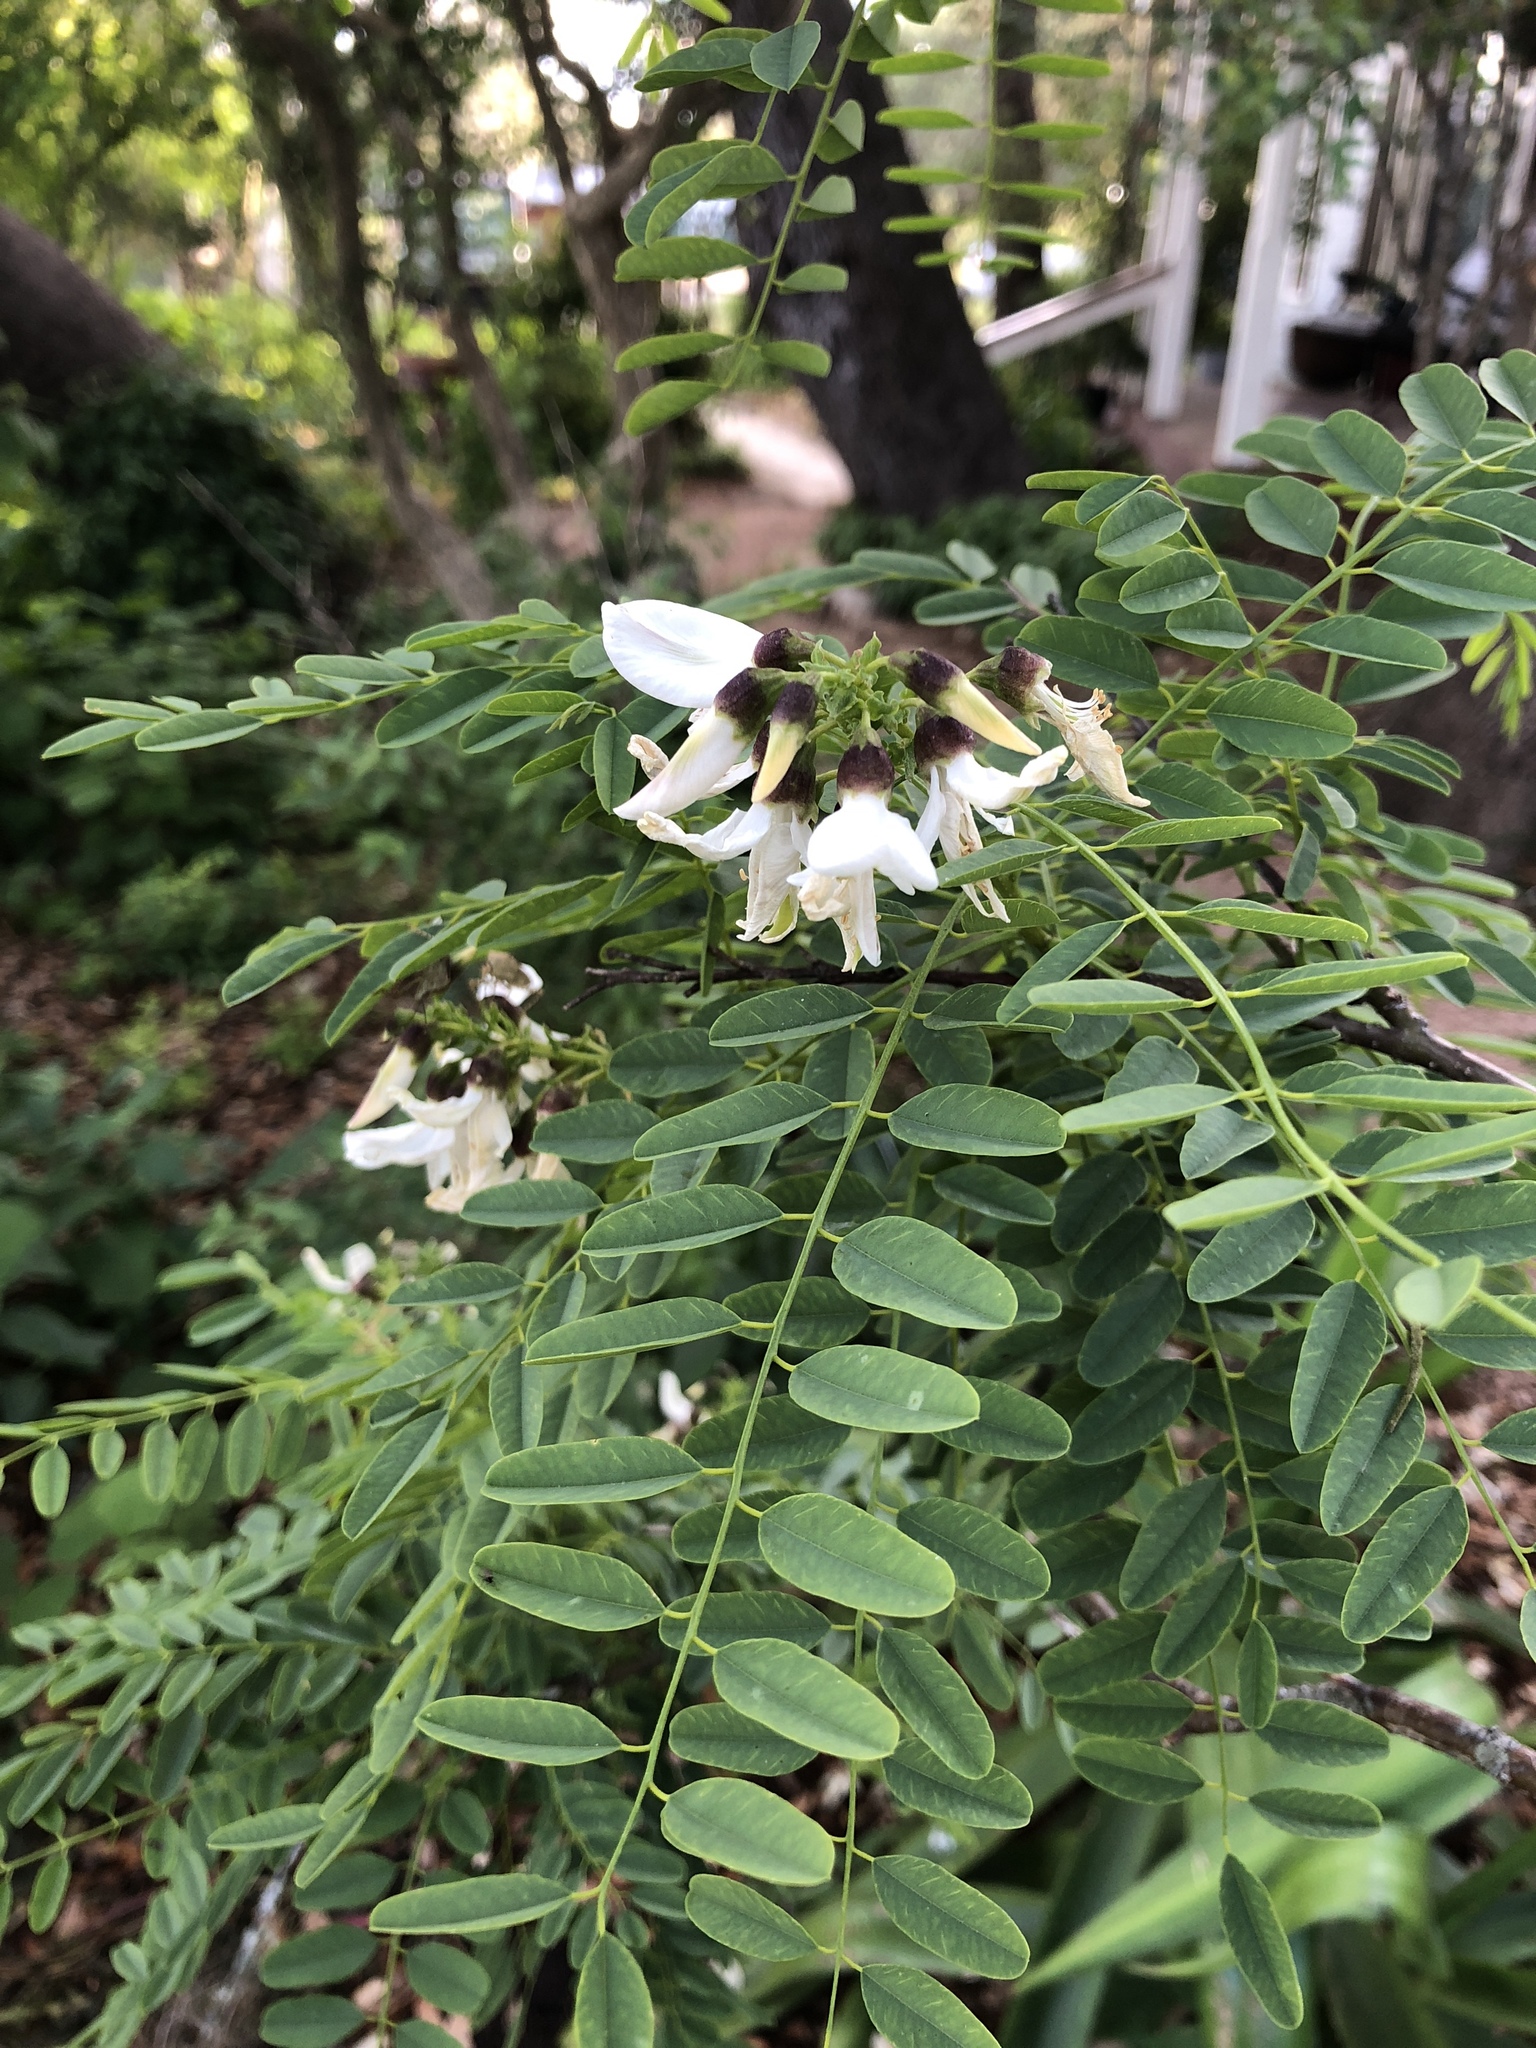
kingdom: Plantae
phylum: Tracheophyta
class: Magnoliopsida
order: Fabales
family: Fabaceae
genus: Myrospermum
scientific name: Myrospermum sousanum
